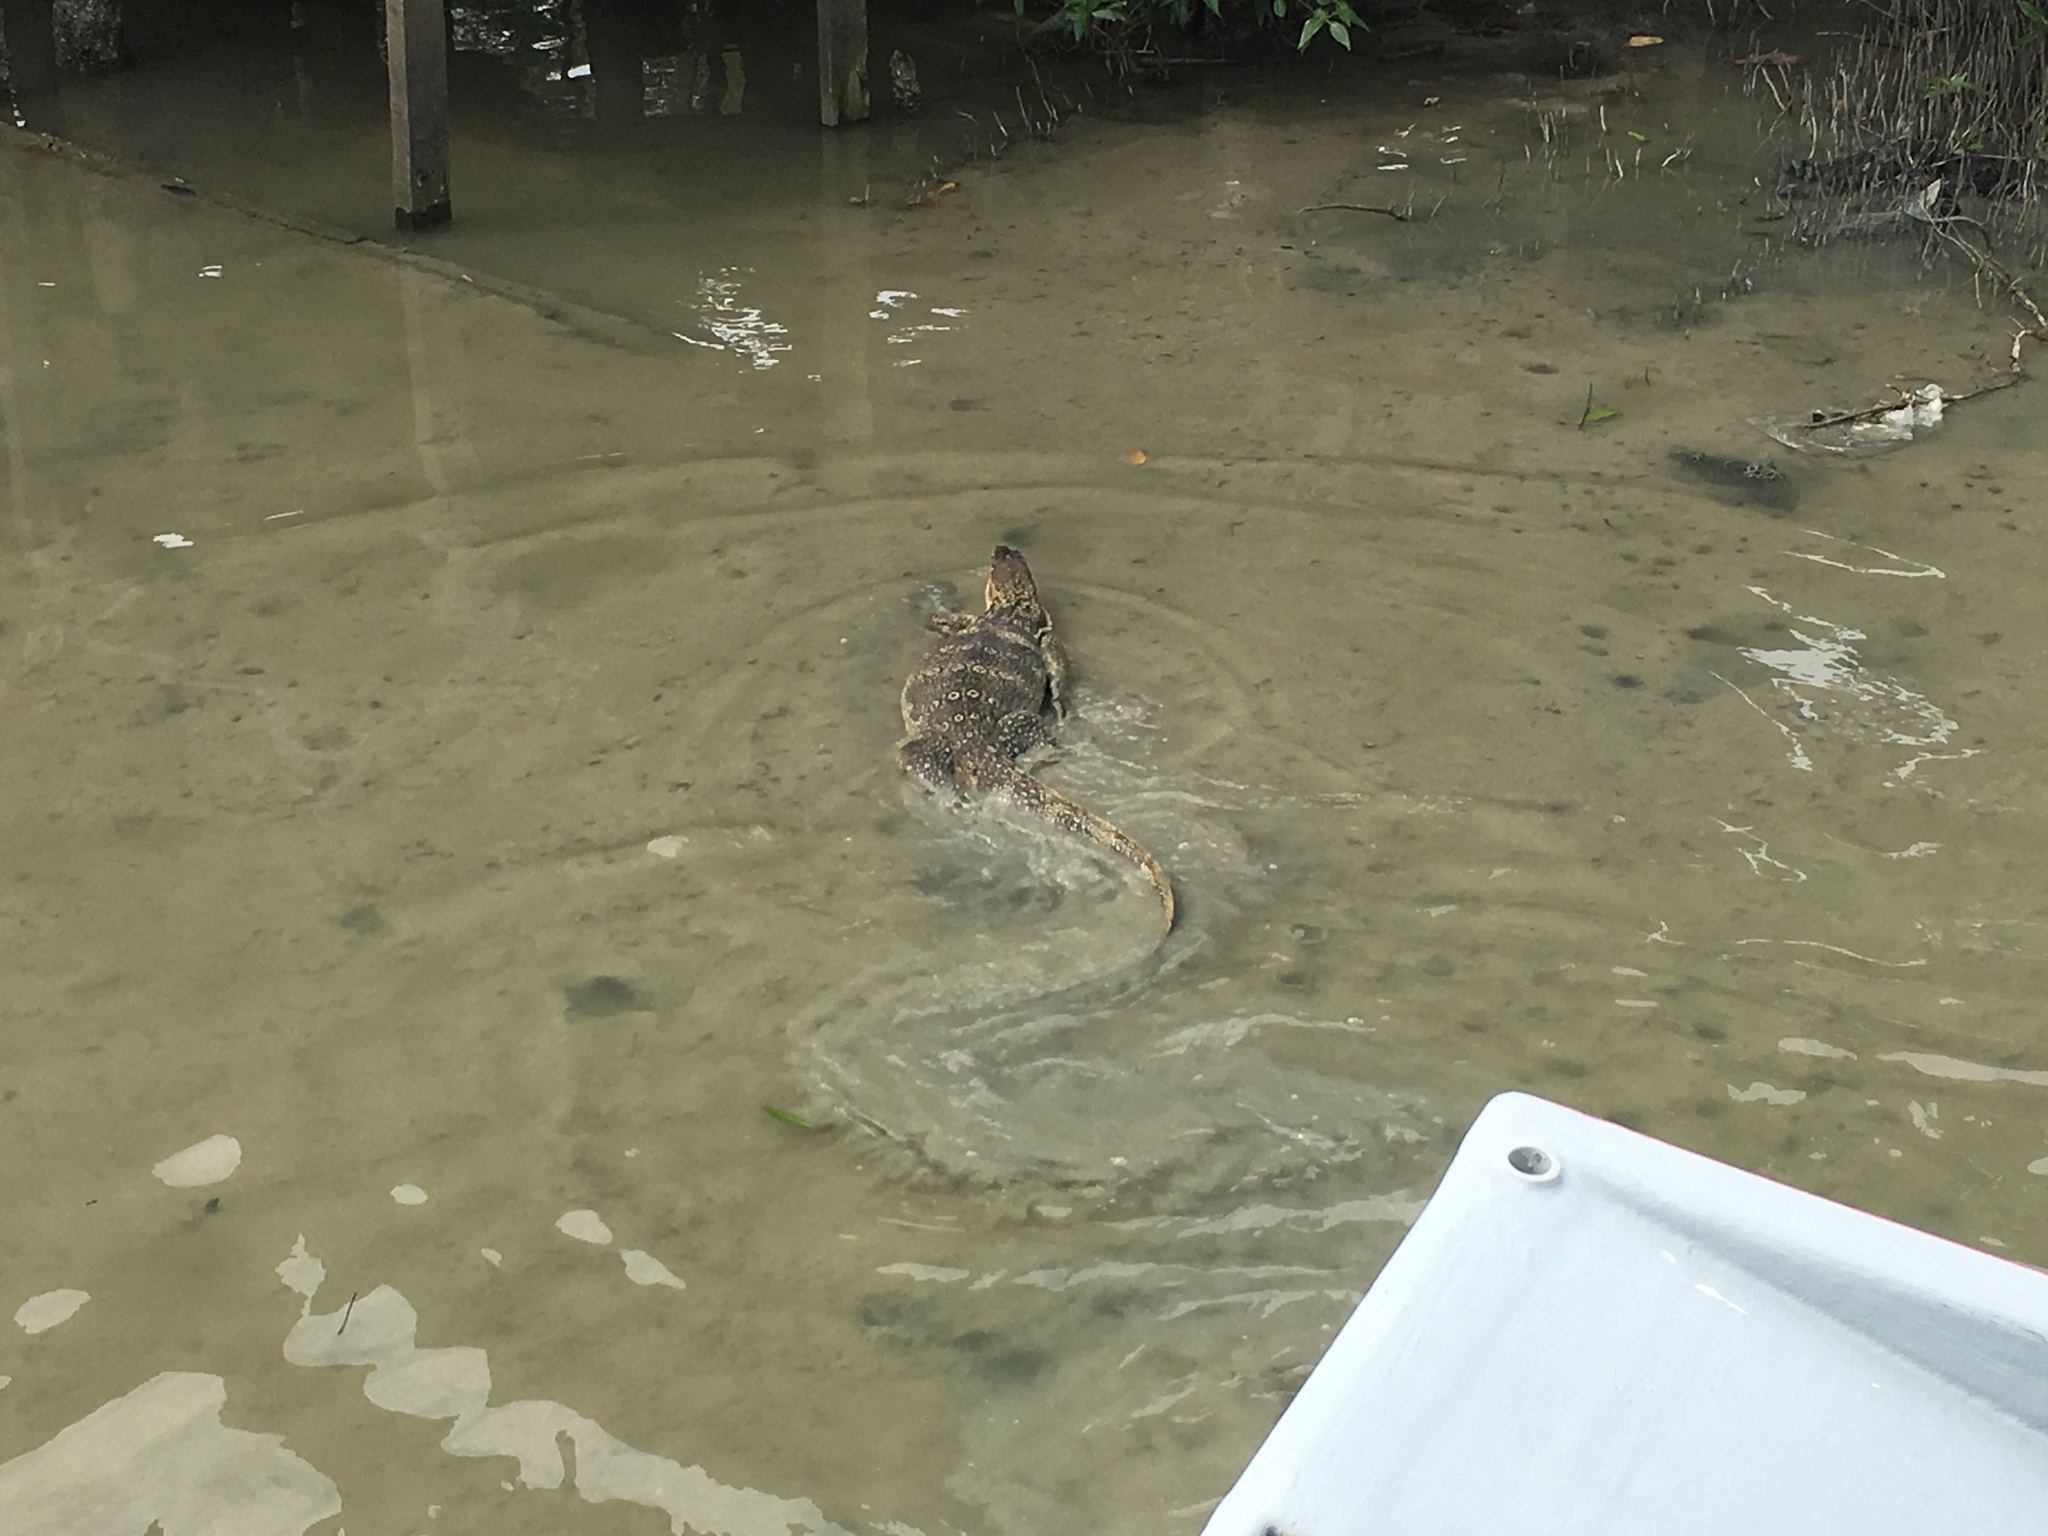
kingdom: Animalia
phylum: Chordata
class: Squamata
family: Varanidae
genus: Varanus
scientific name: Varanus salvator
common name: Common water monitor
